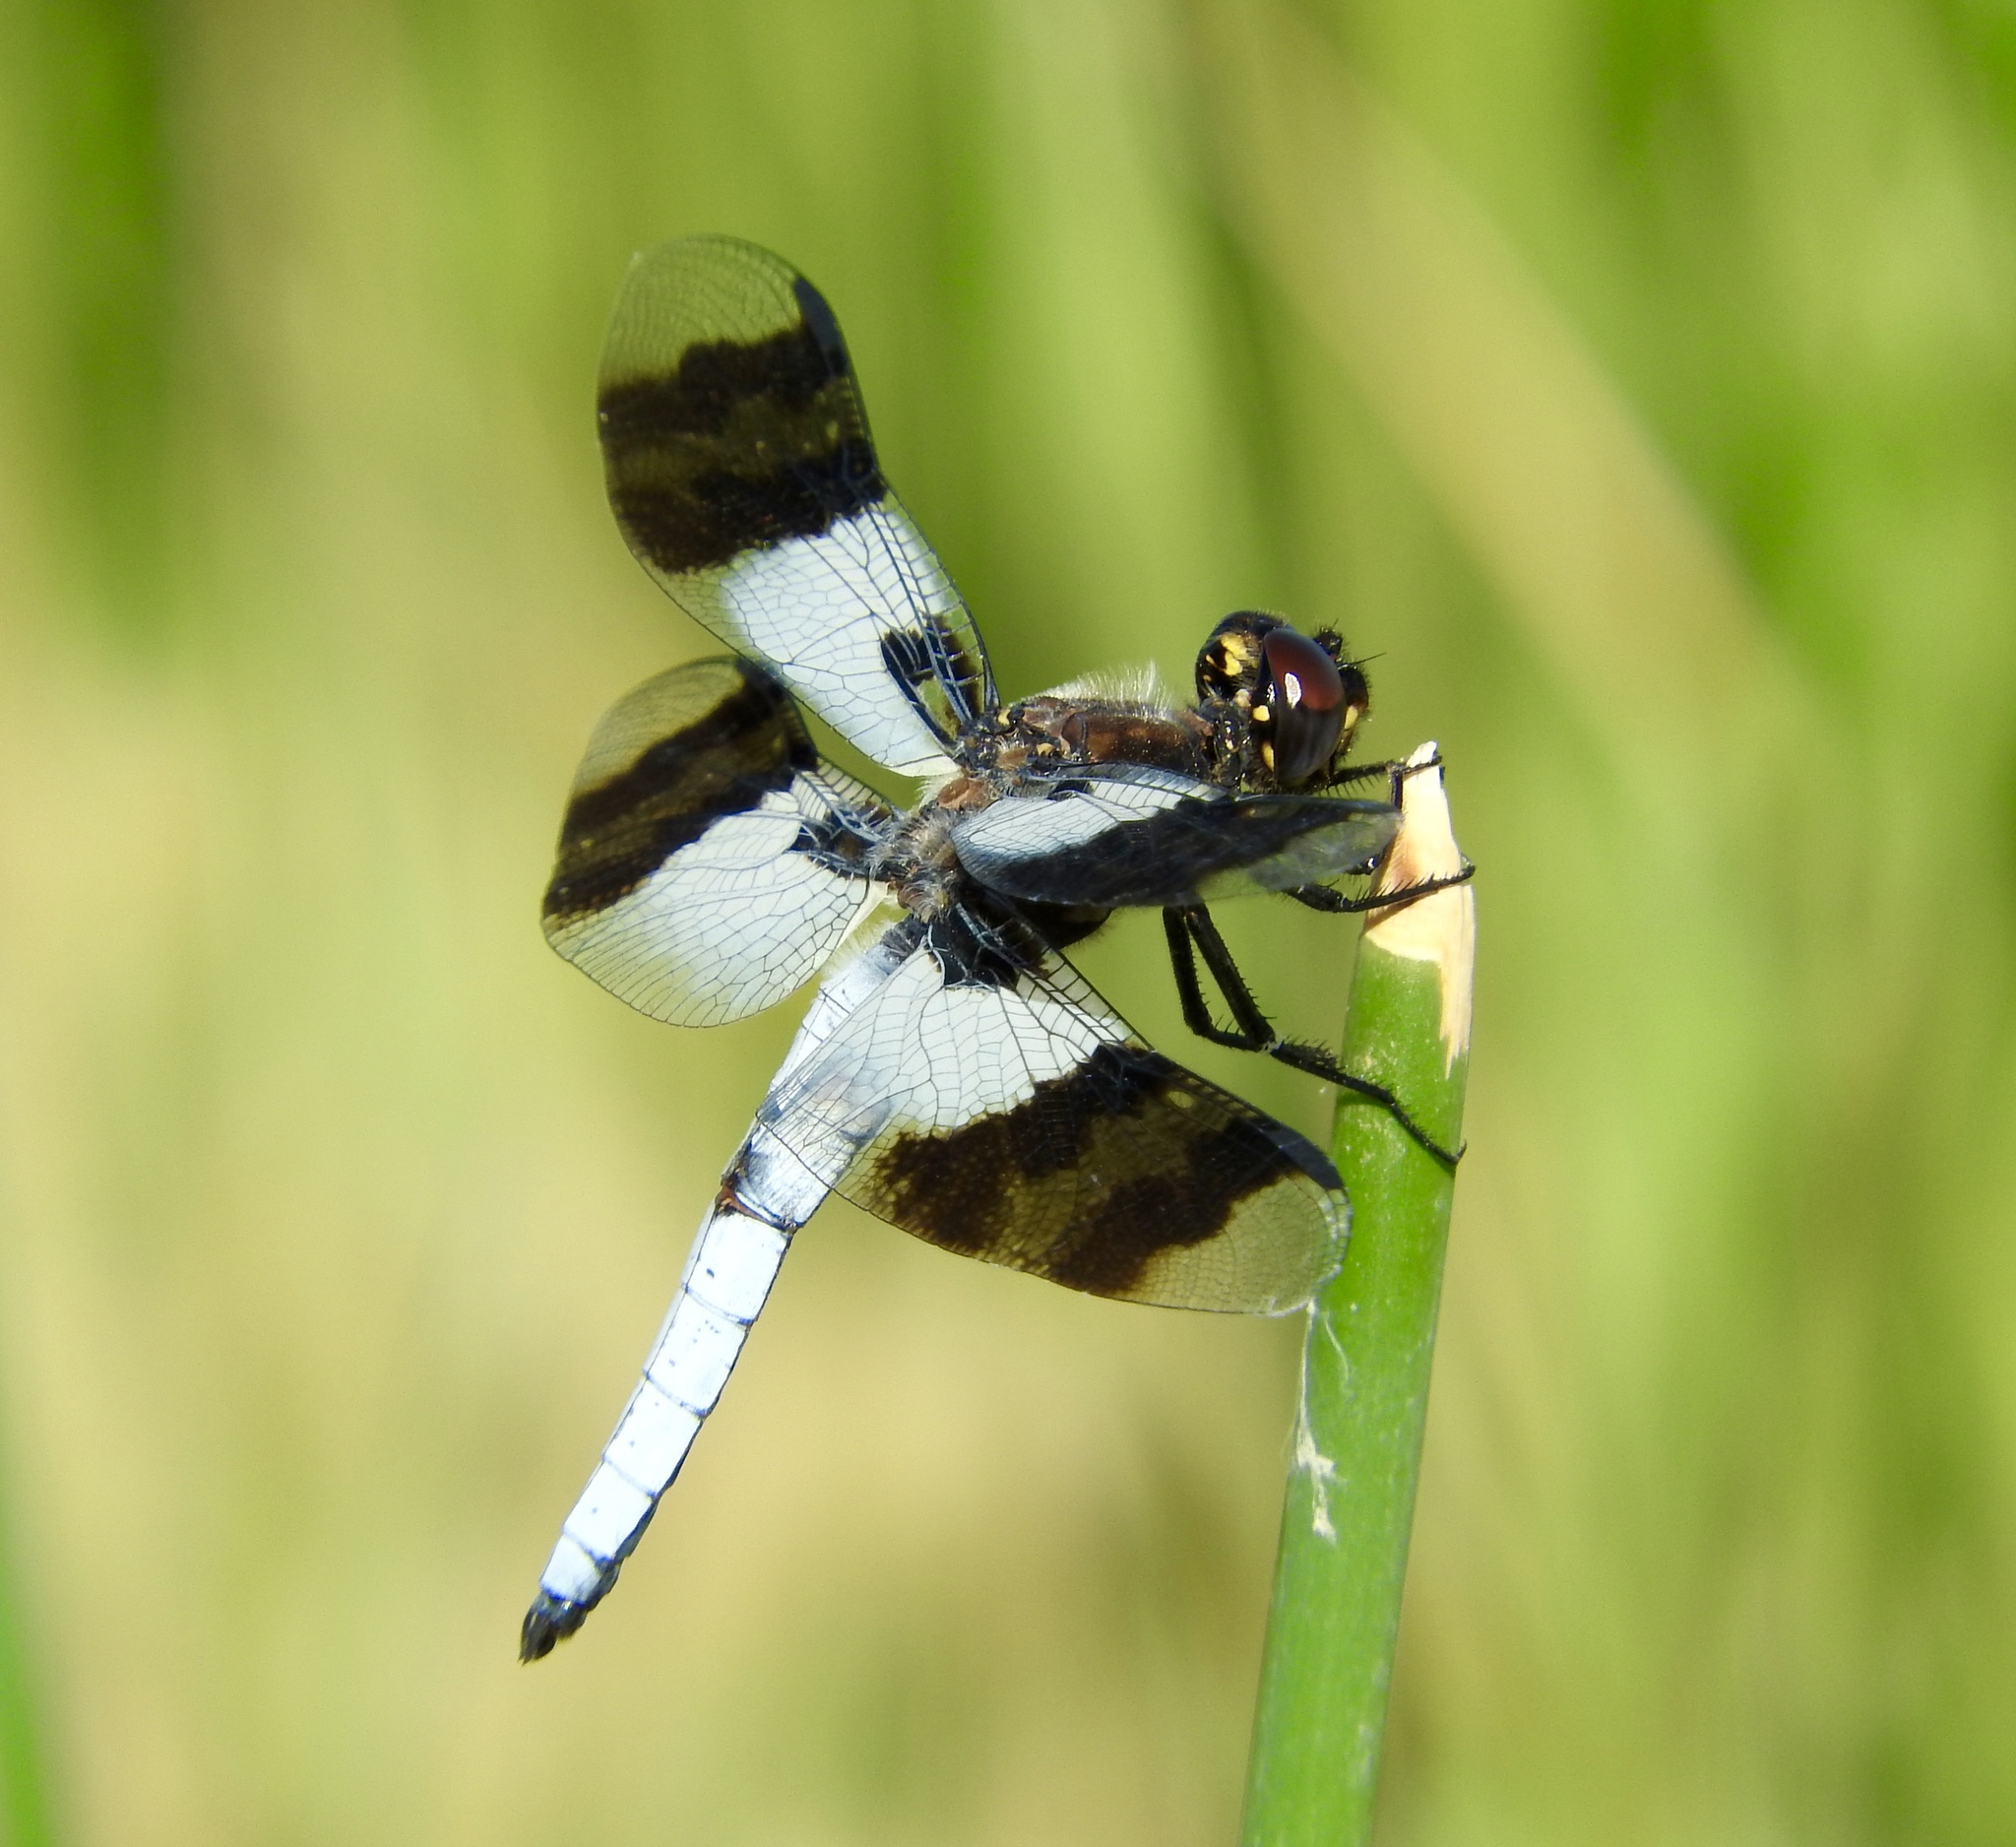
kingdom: Animalia
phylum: Arthropoda
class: Insecta
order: Odonata
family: Libellulidae
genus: Plathemis
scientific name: Plathemis subornata
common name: Desert whitetail
